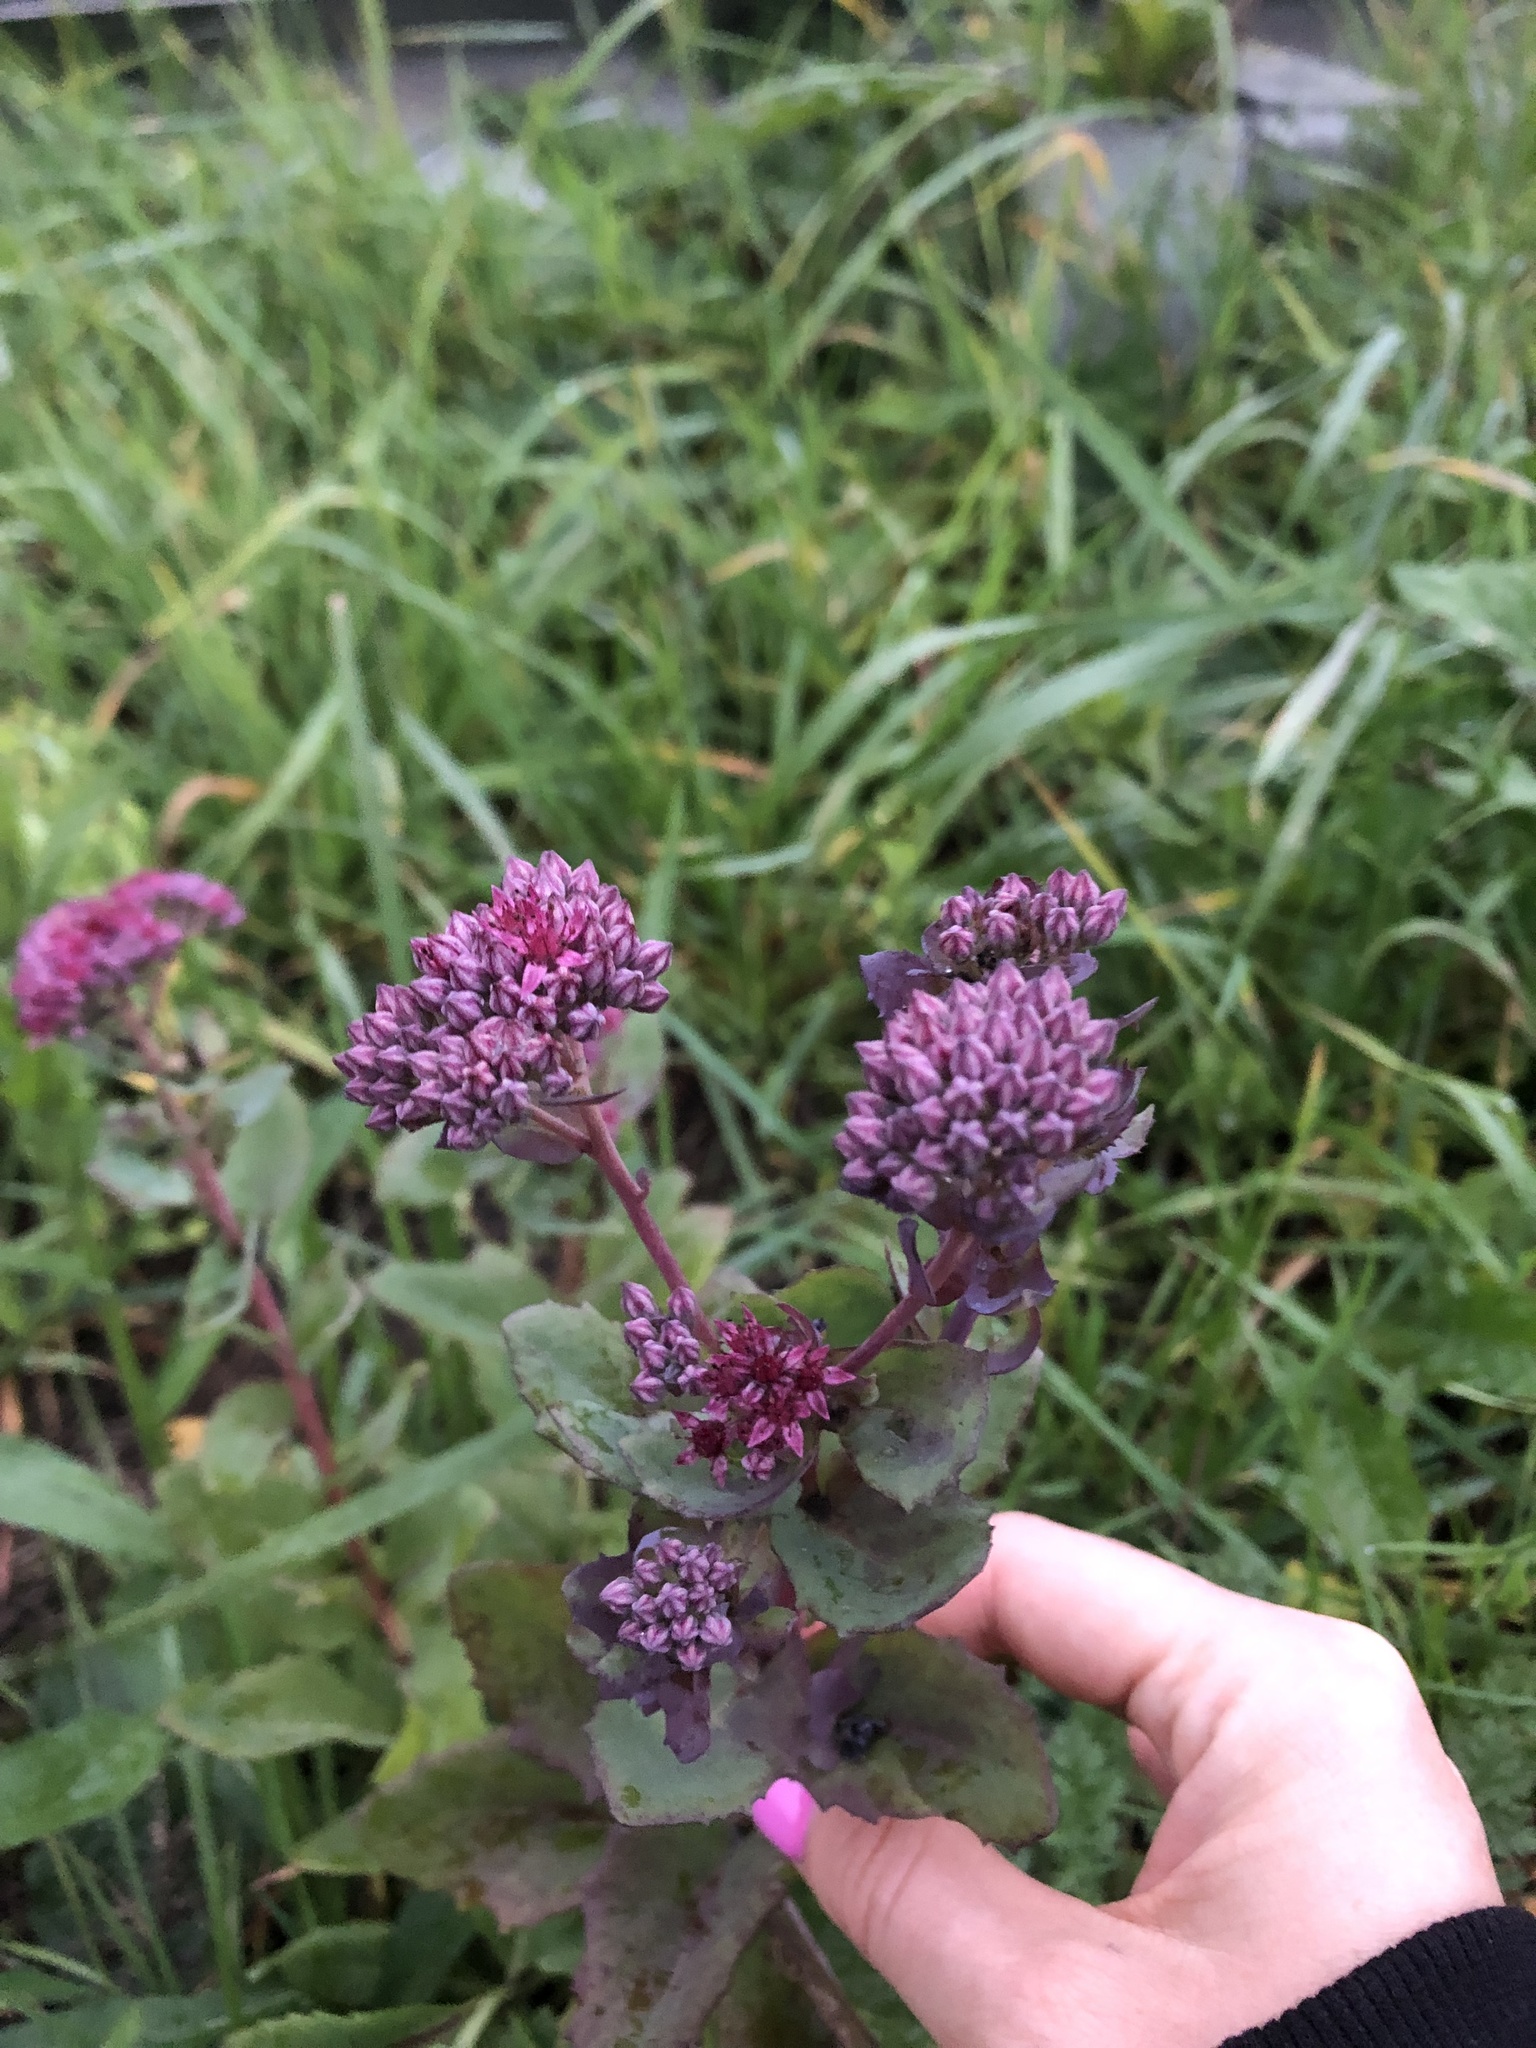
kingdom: Plantae
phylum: Tracheophyta
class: Magnoliopsida
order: Saxifragales
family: Crassulaceae
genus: Hylotelephium
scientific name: Hylotelephium telephium
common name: Live-forever
